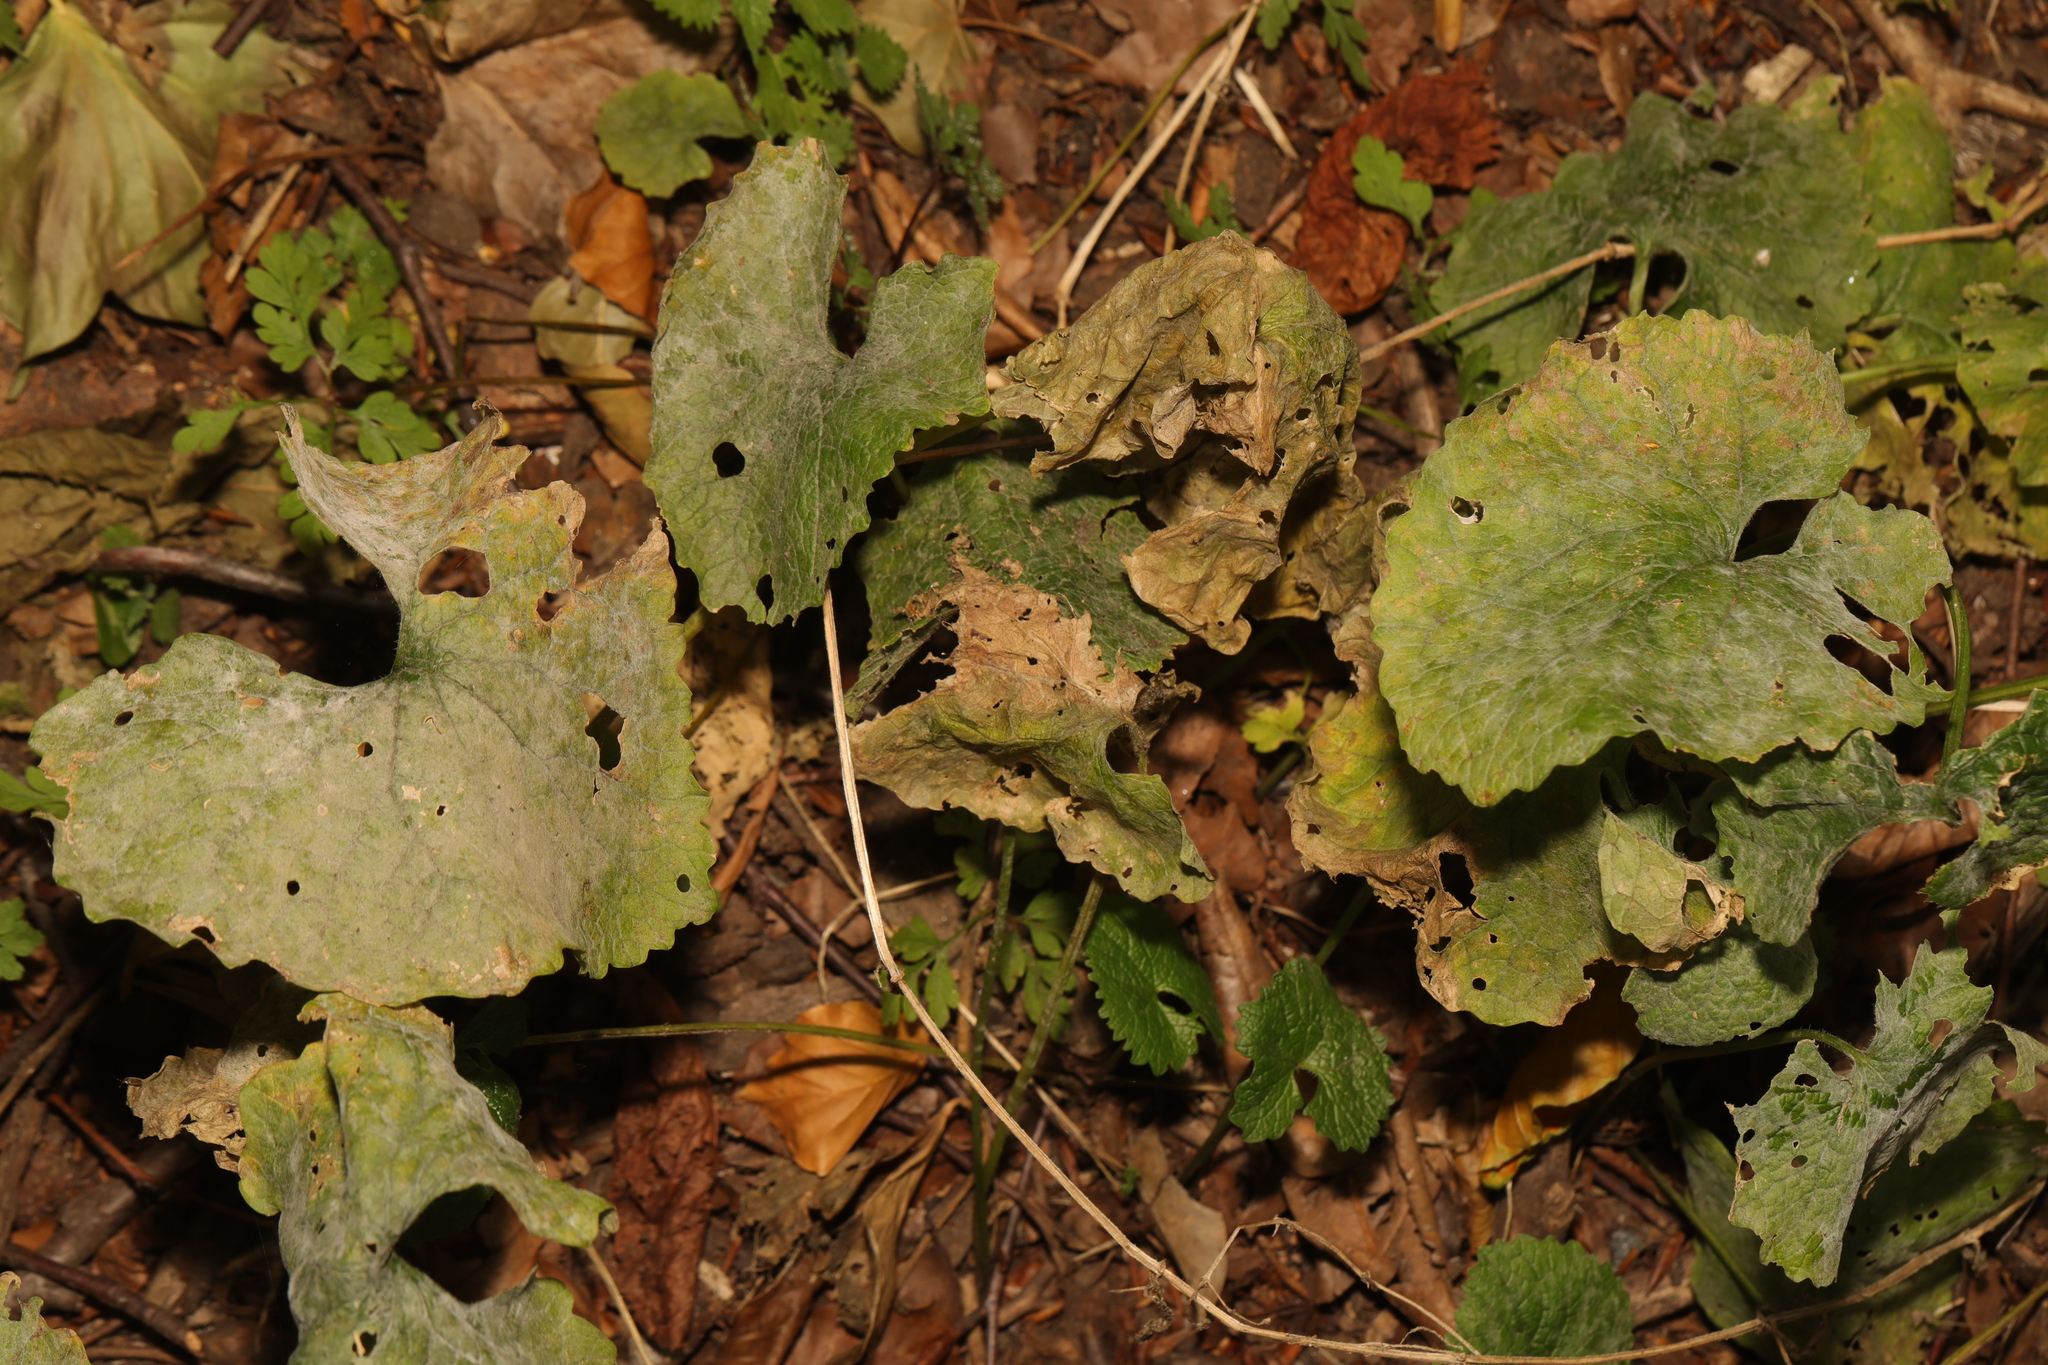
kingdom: Plantae
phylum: Tracheophyta
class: Magnoliopsida
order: Brassicales
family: Brassicaceae
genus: Alliaria
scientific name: Alliaria petiolata
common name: Garlic mustard
